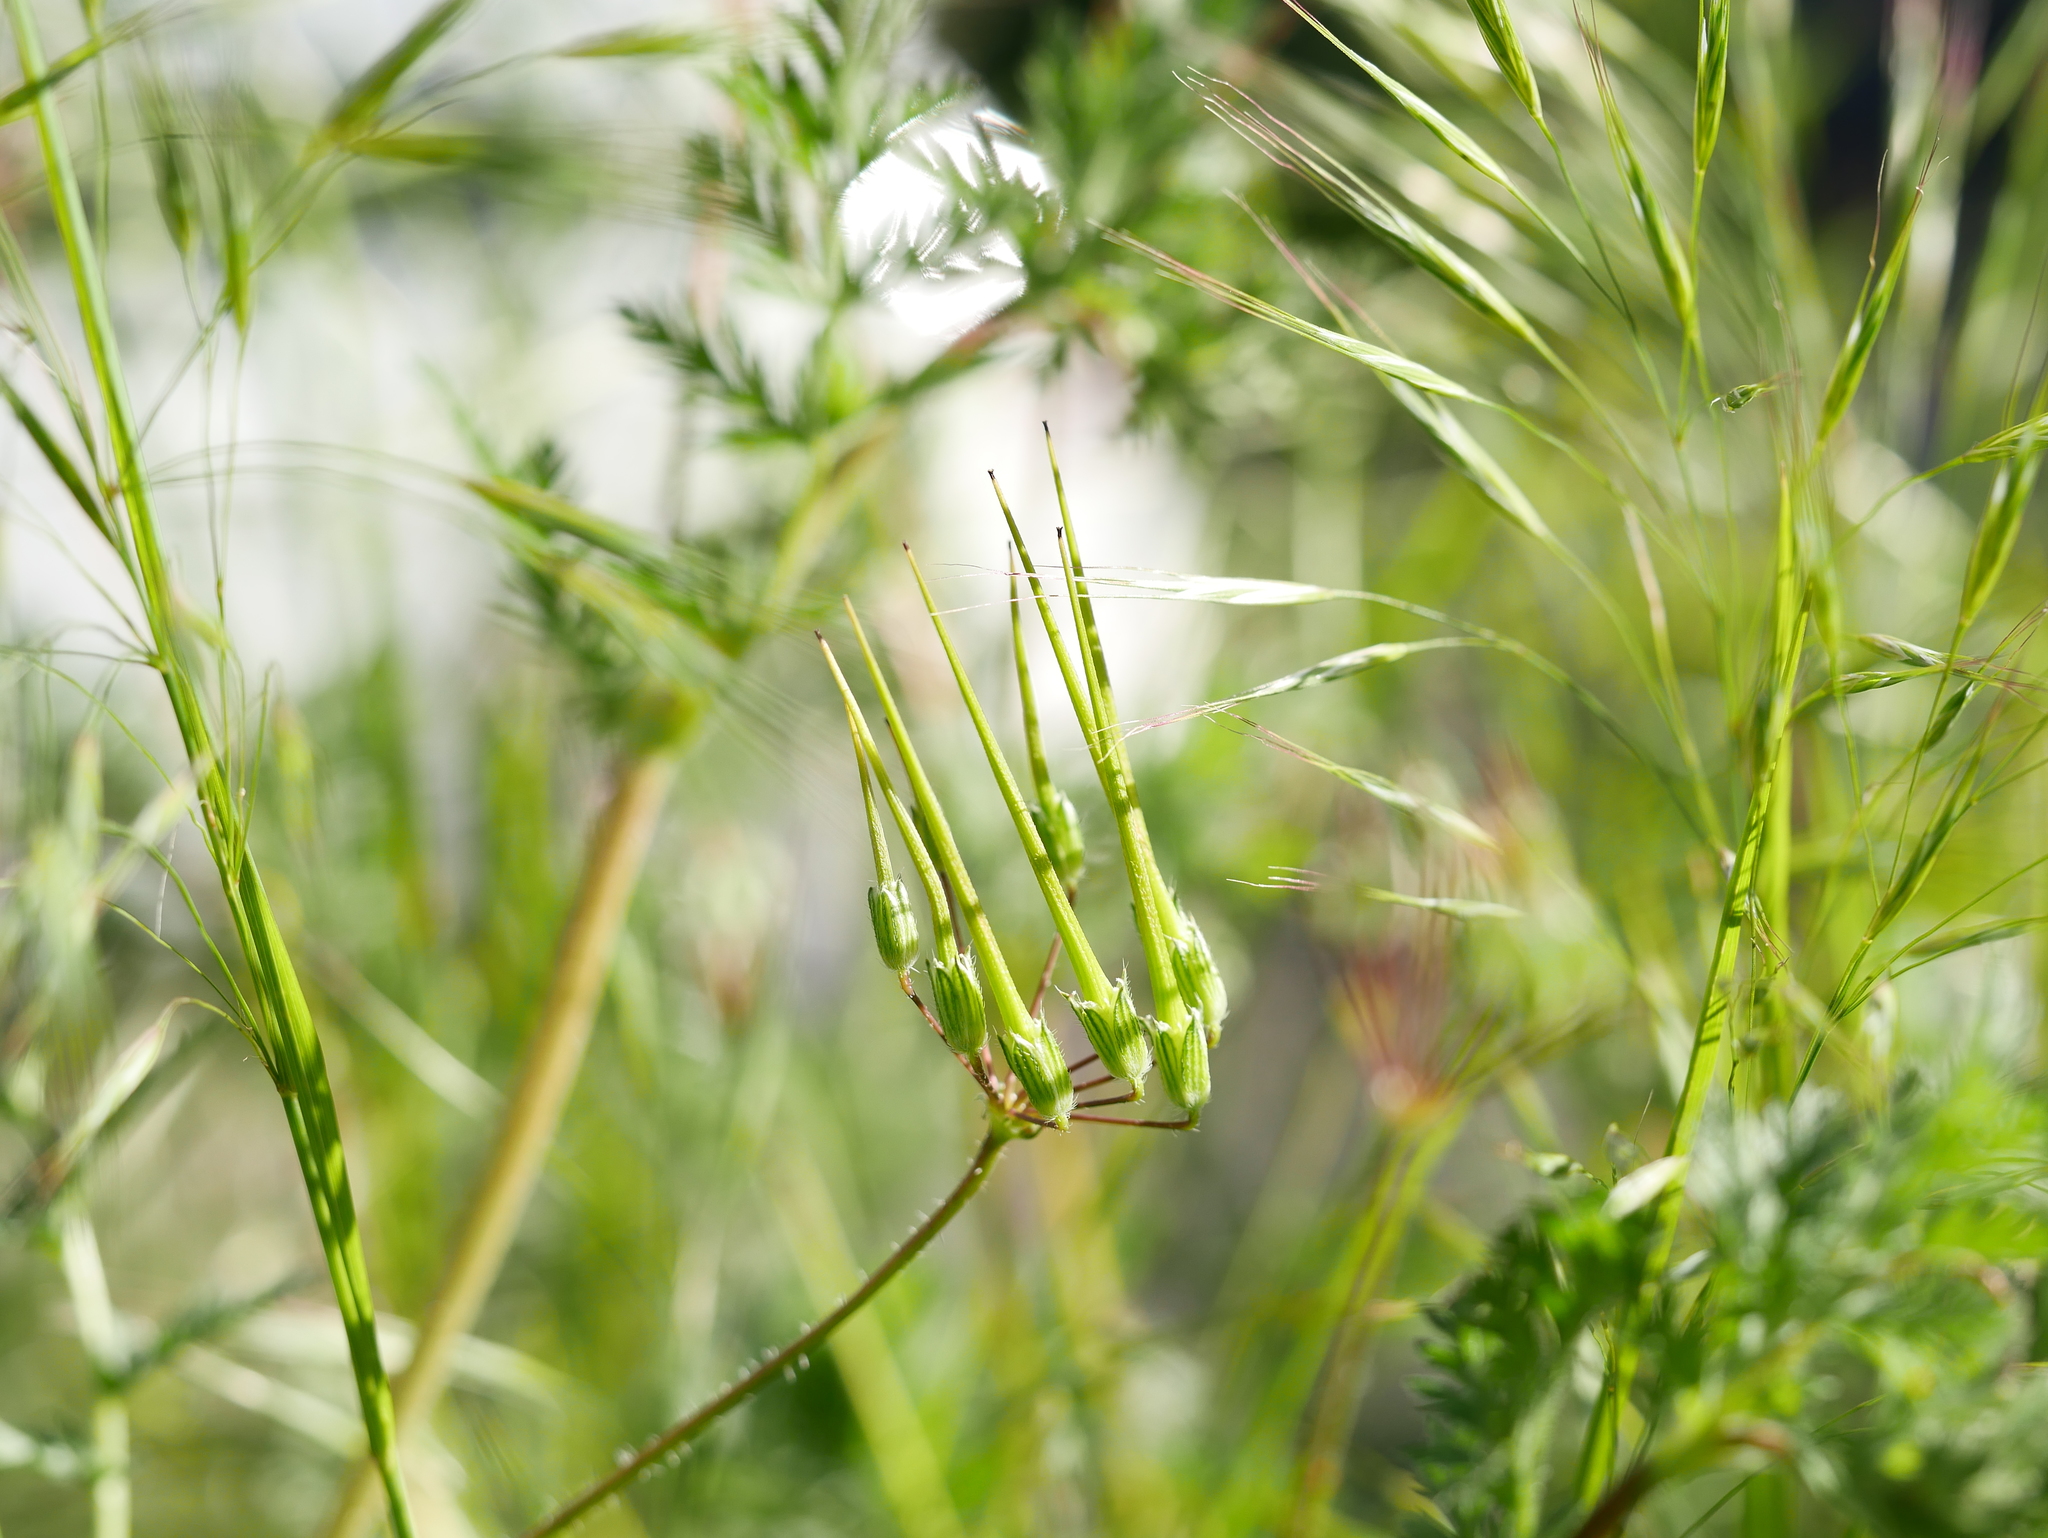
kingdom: Plantae
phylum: Tracheophyta
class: Magnoliopsida
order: Geraniales
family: Geraniaceae
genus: Erodium
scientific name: Erodium cicutarium
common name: Common stork's-bill
